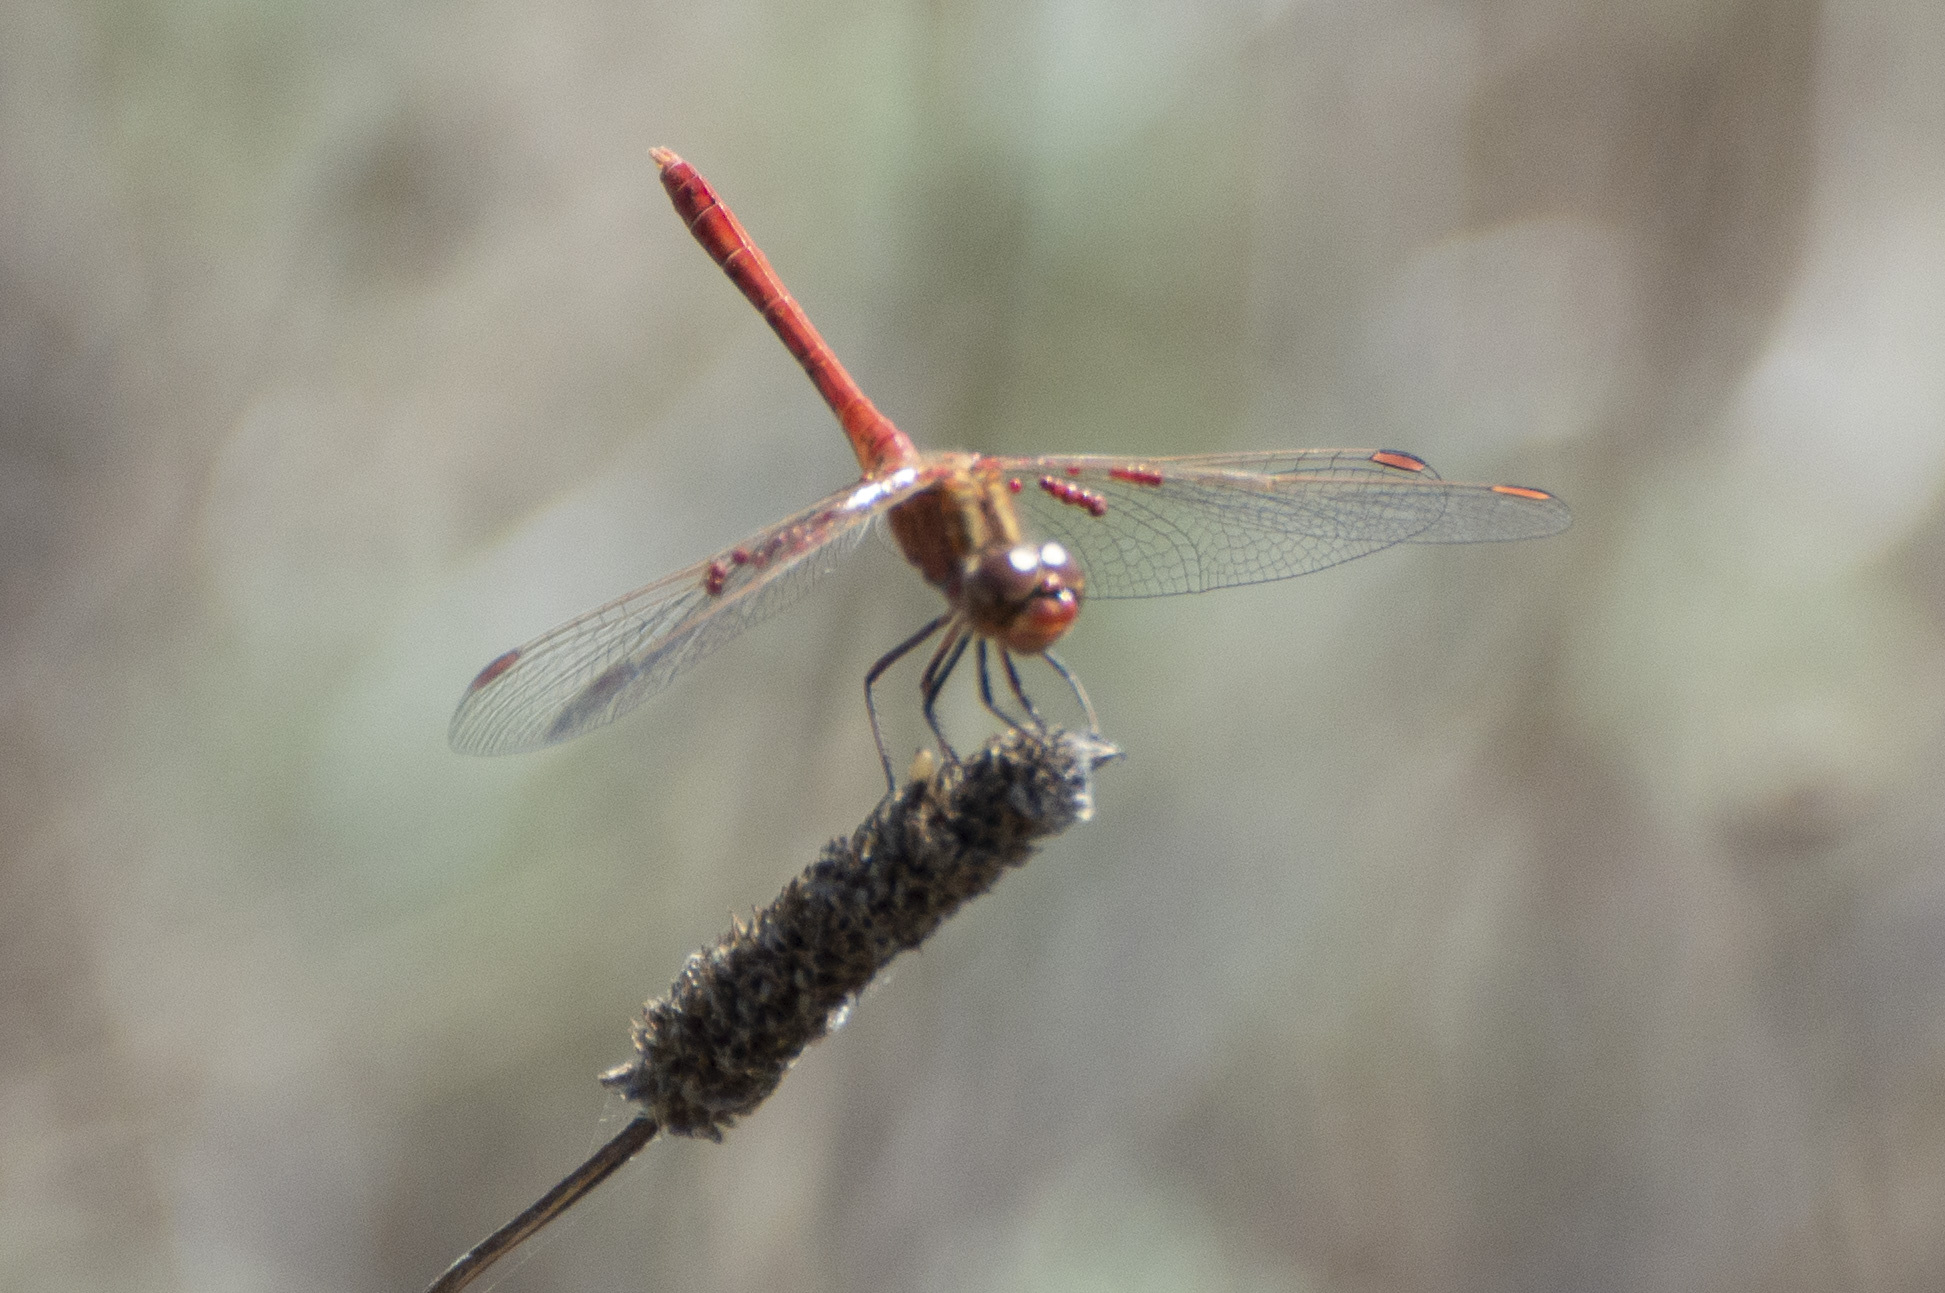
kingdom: Animalia
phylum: Arthropoda
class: Insecta
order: Odonata
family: Libellulidae
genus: Sympetrum
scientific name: Sympetrum meridionale
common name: Southern darter
